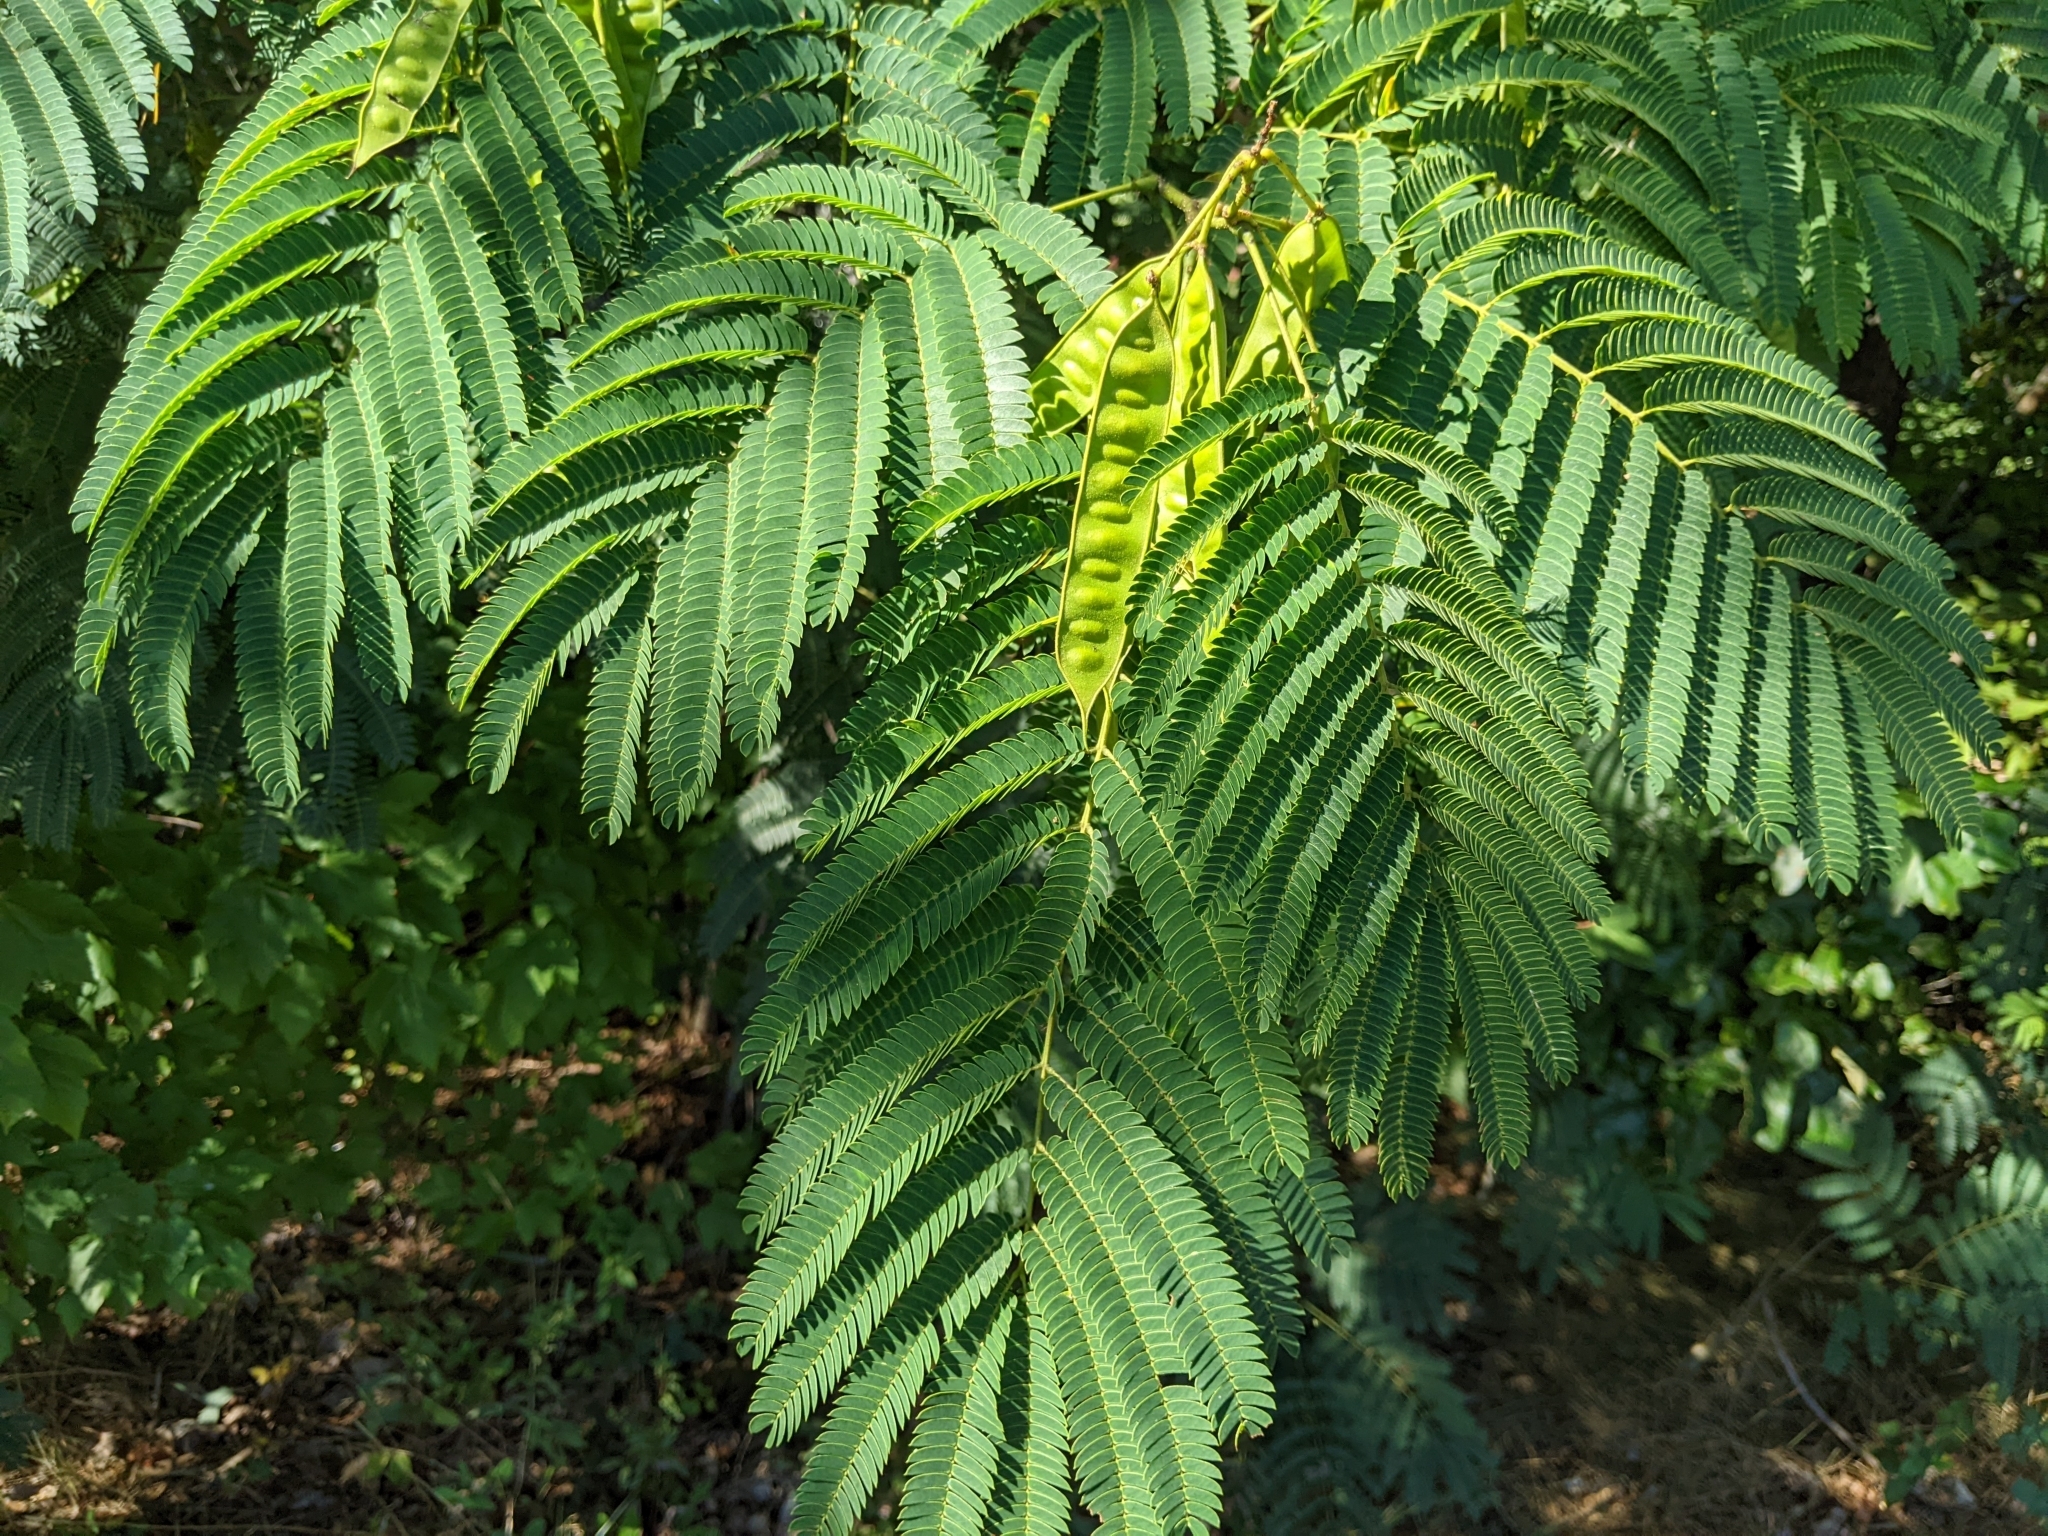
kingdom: Plantae
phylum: Tracheophyta
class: Magnoliopsida
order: Fabales
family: Fabaceae
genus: Albizia
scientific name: Albizia julibrissin
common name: Silktree
